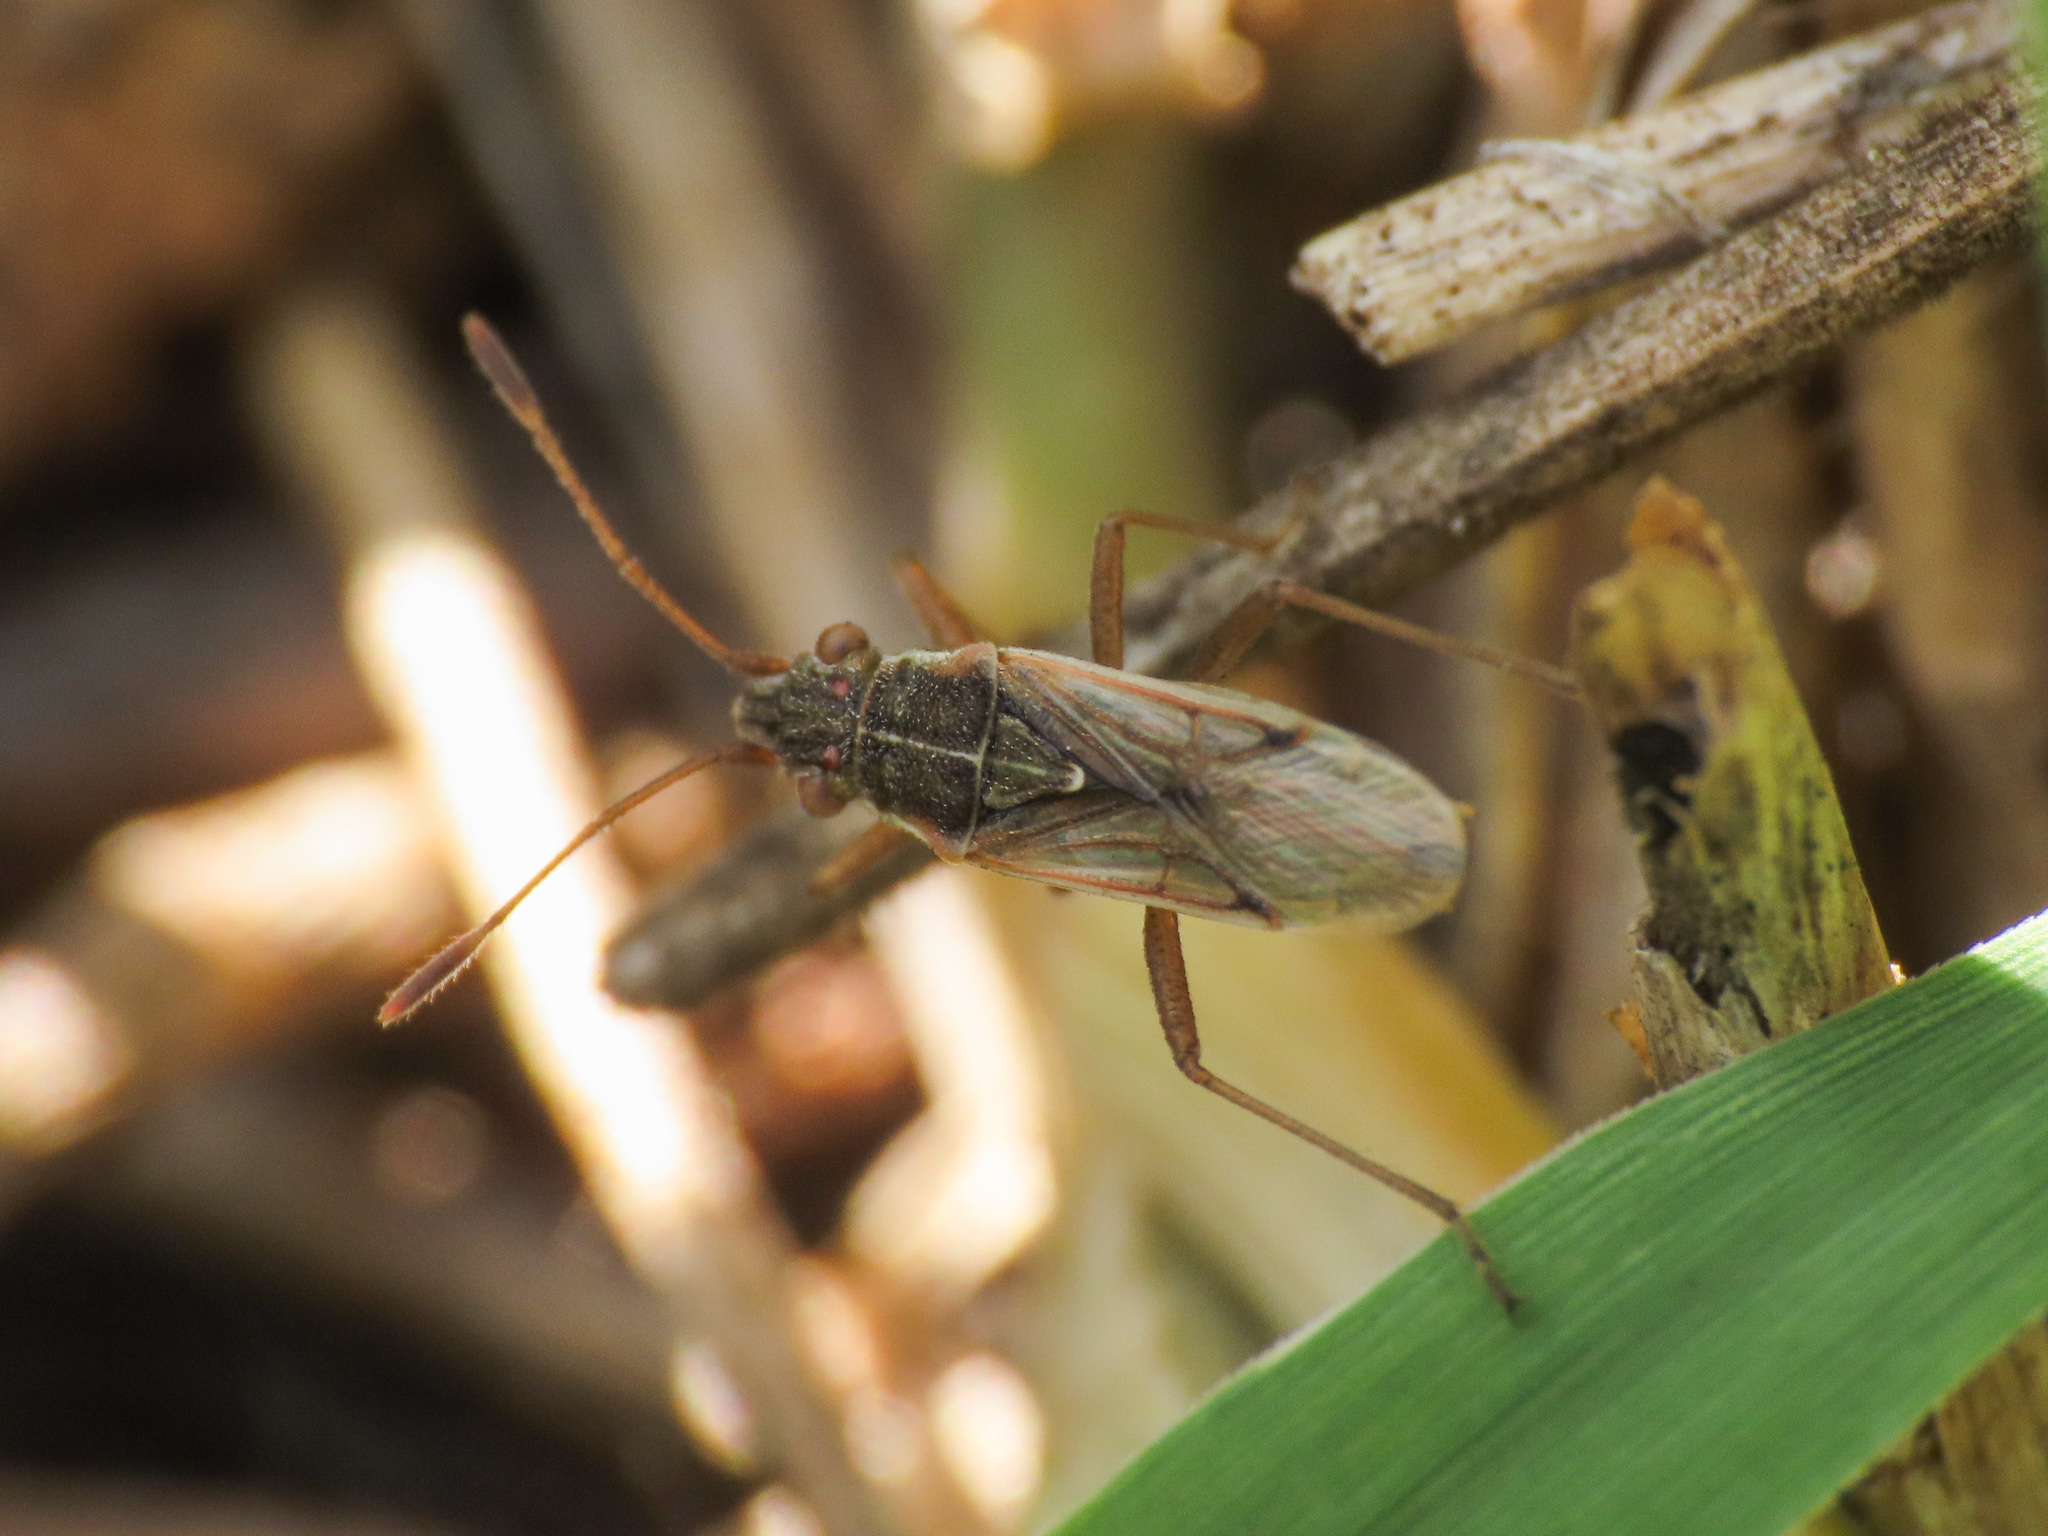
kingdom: Animalia
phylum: Arthropoda
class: Insecta
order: Hemiptera
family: Rhopalidae
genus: Agraphopus
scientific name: Agraphopus lethierryi
